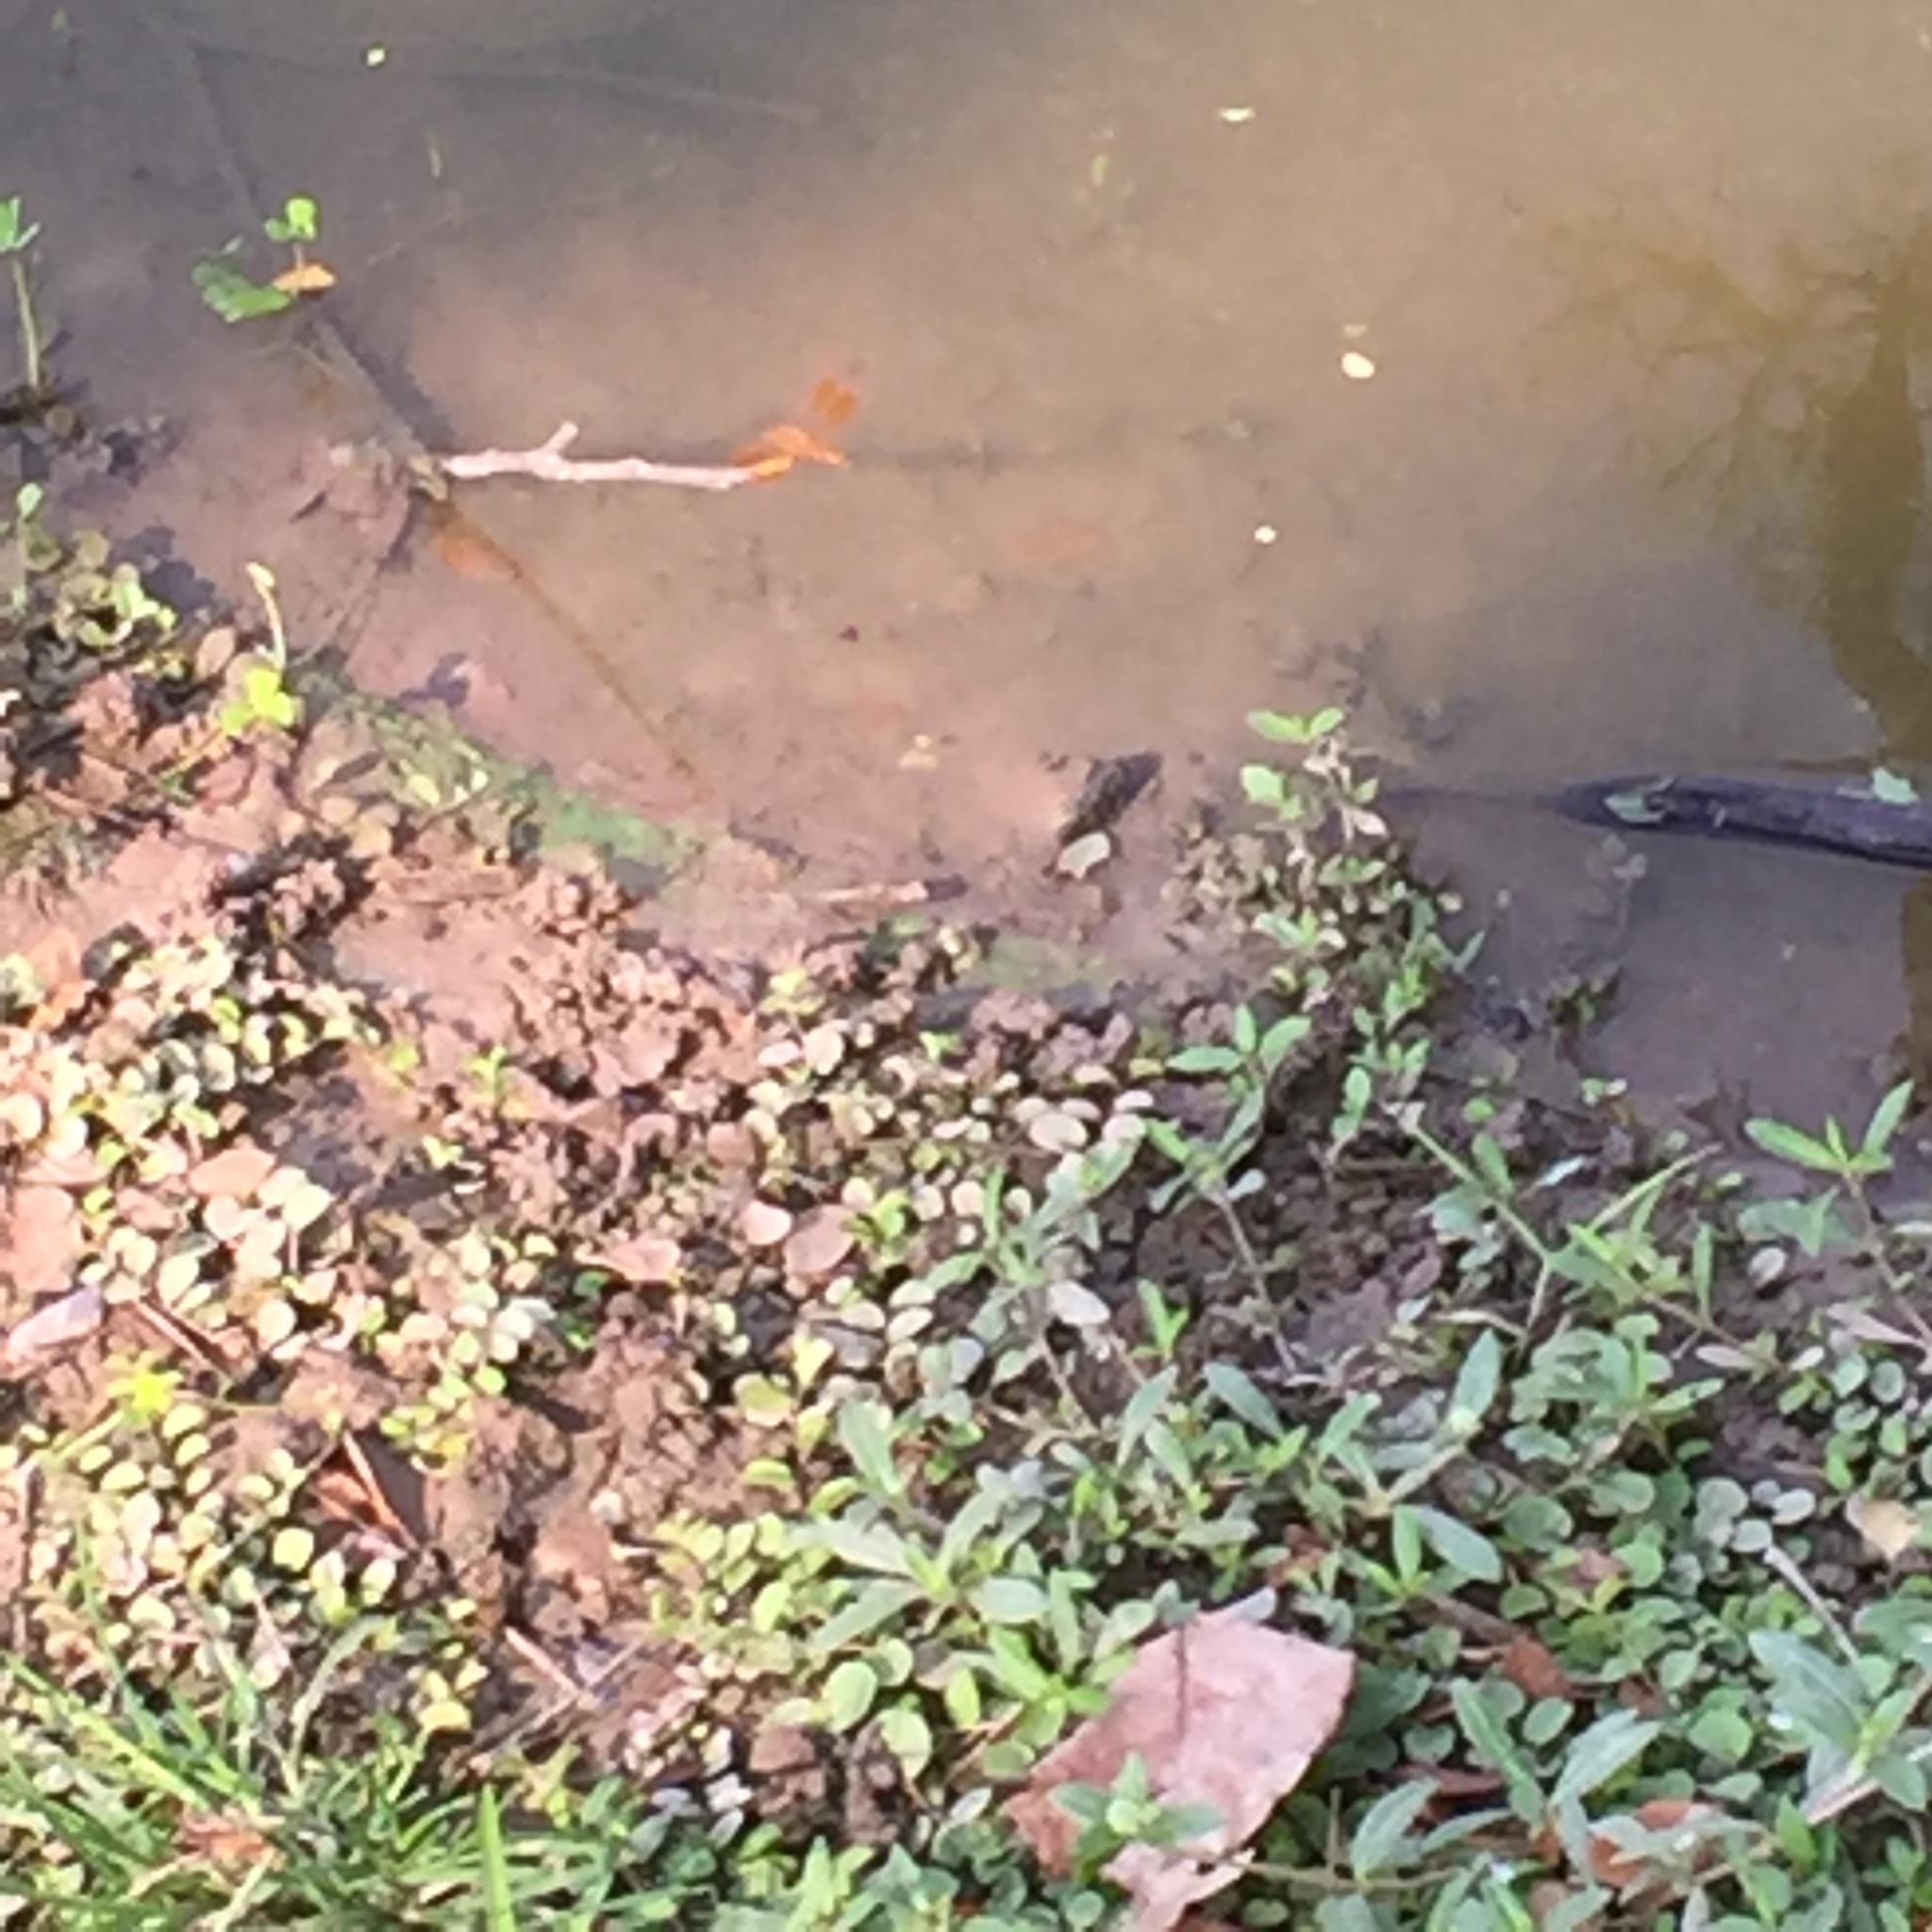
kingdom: Animalia
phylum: Arthropoda
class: Insecta
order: Odonata
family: Libellulidae
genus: Brachythemis
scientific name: Brachythemis contaminata
